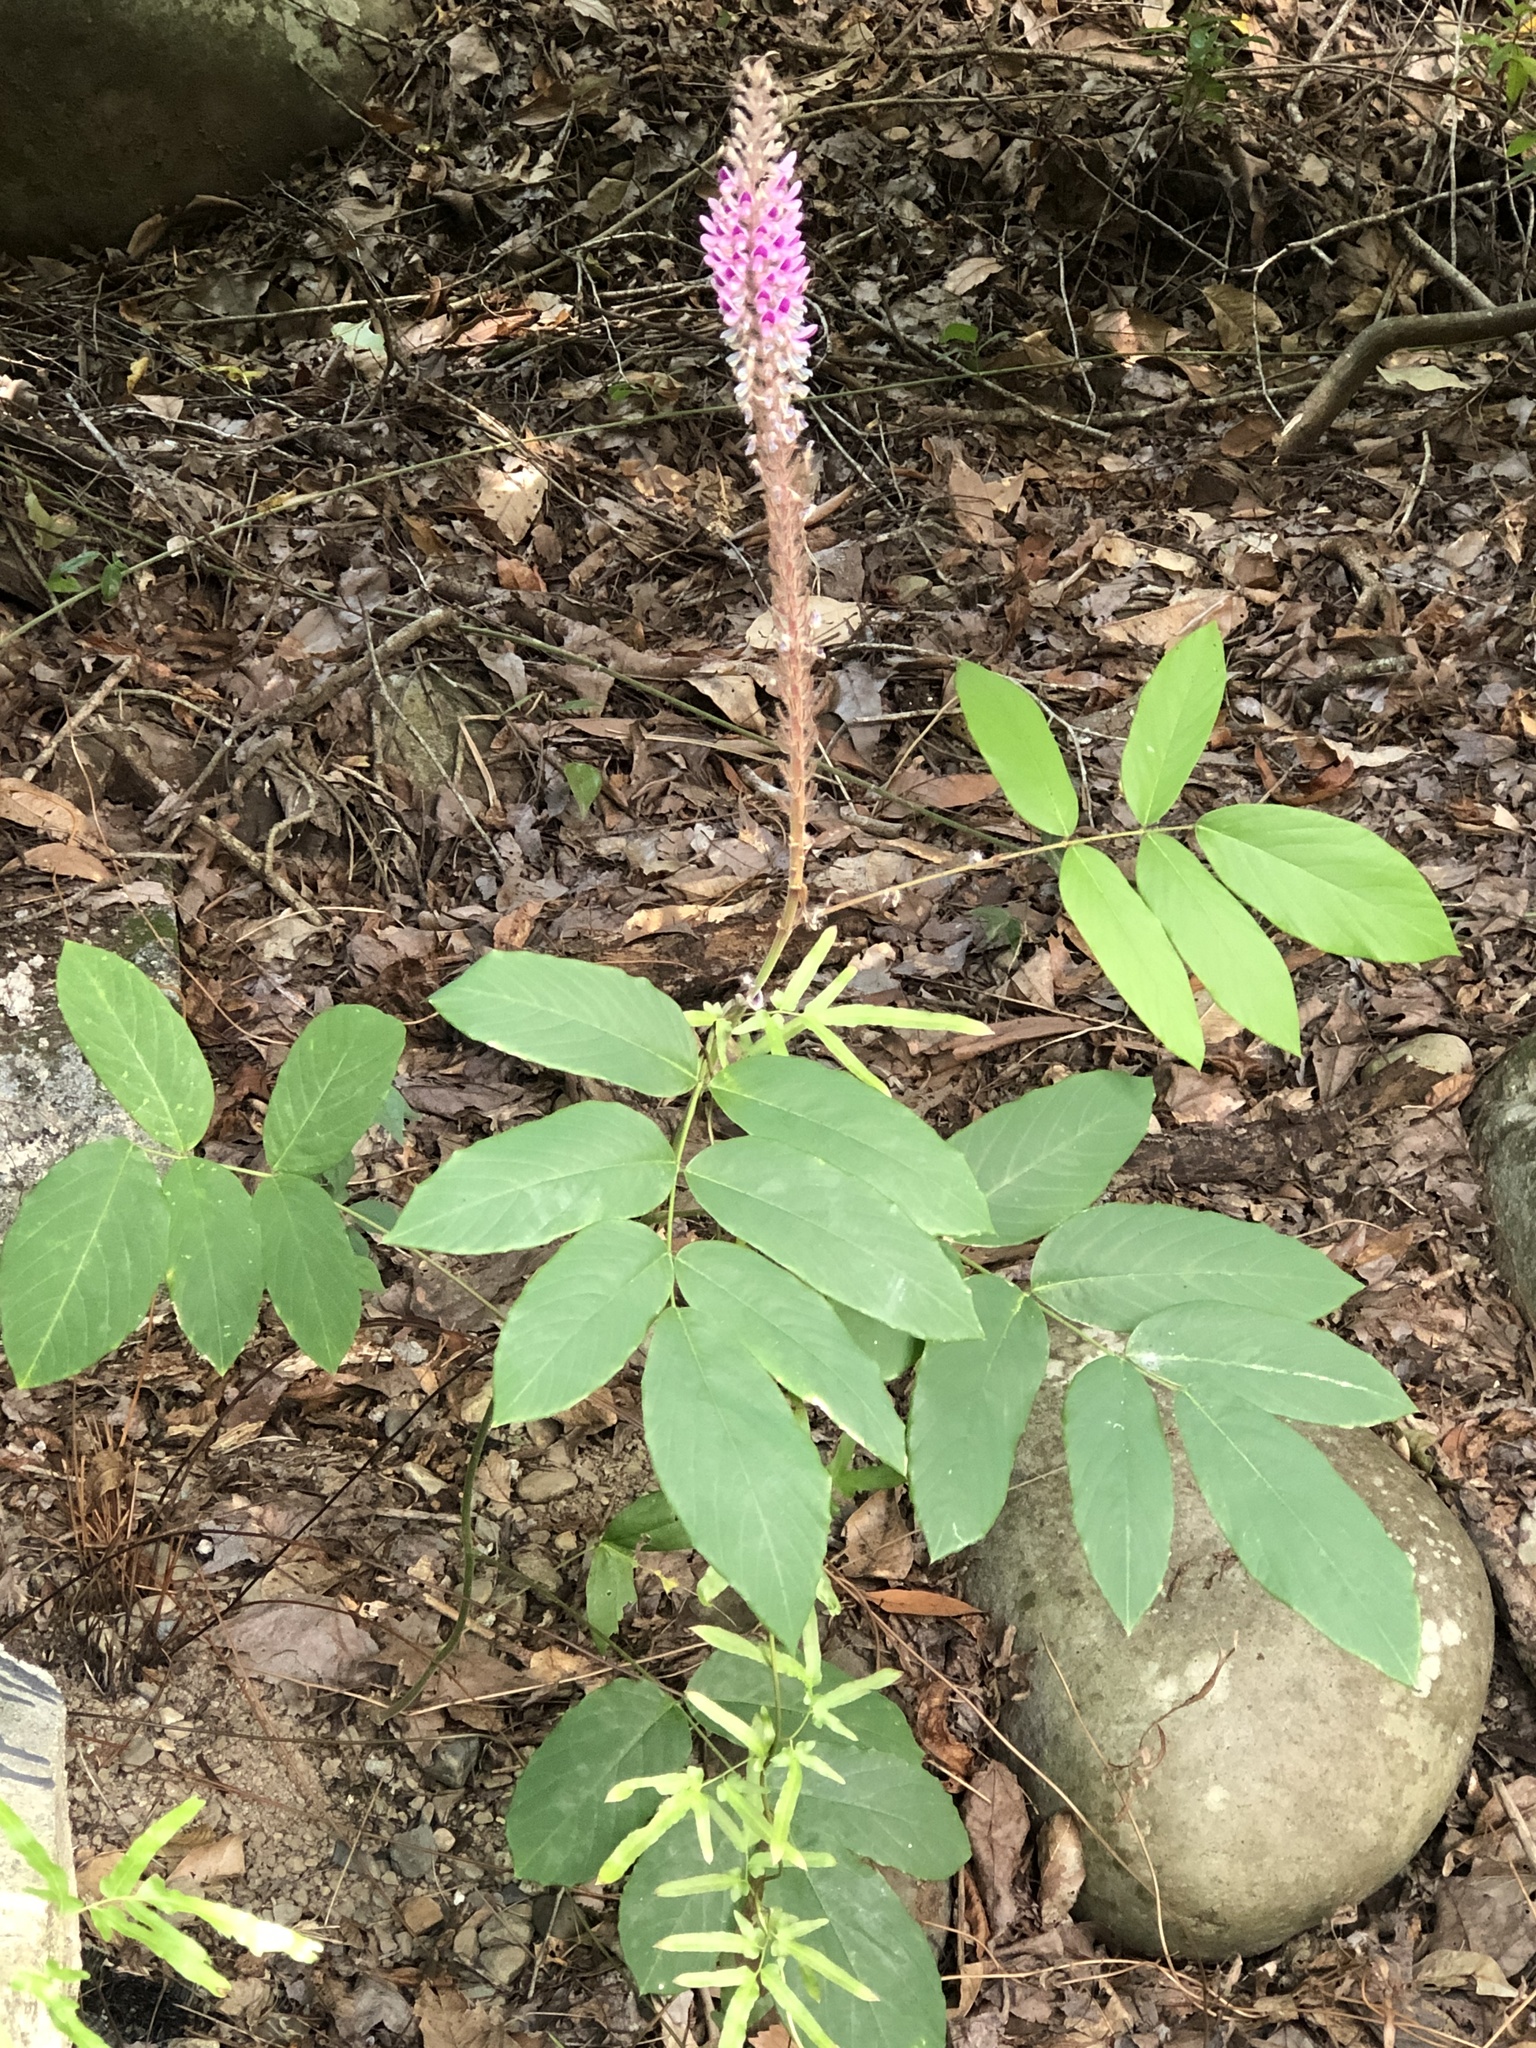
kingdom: Plantae
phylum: Tracheophyta
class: Magnoliopsida
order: Fabales
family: Fabaceae
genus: Uraria
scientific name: Uraria crinita
